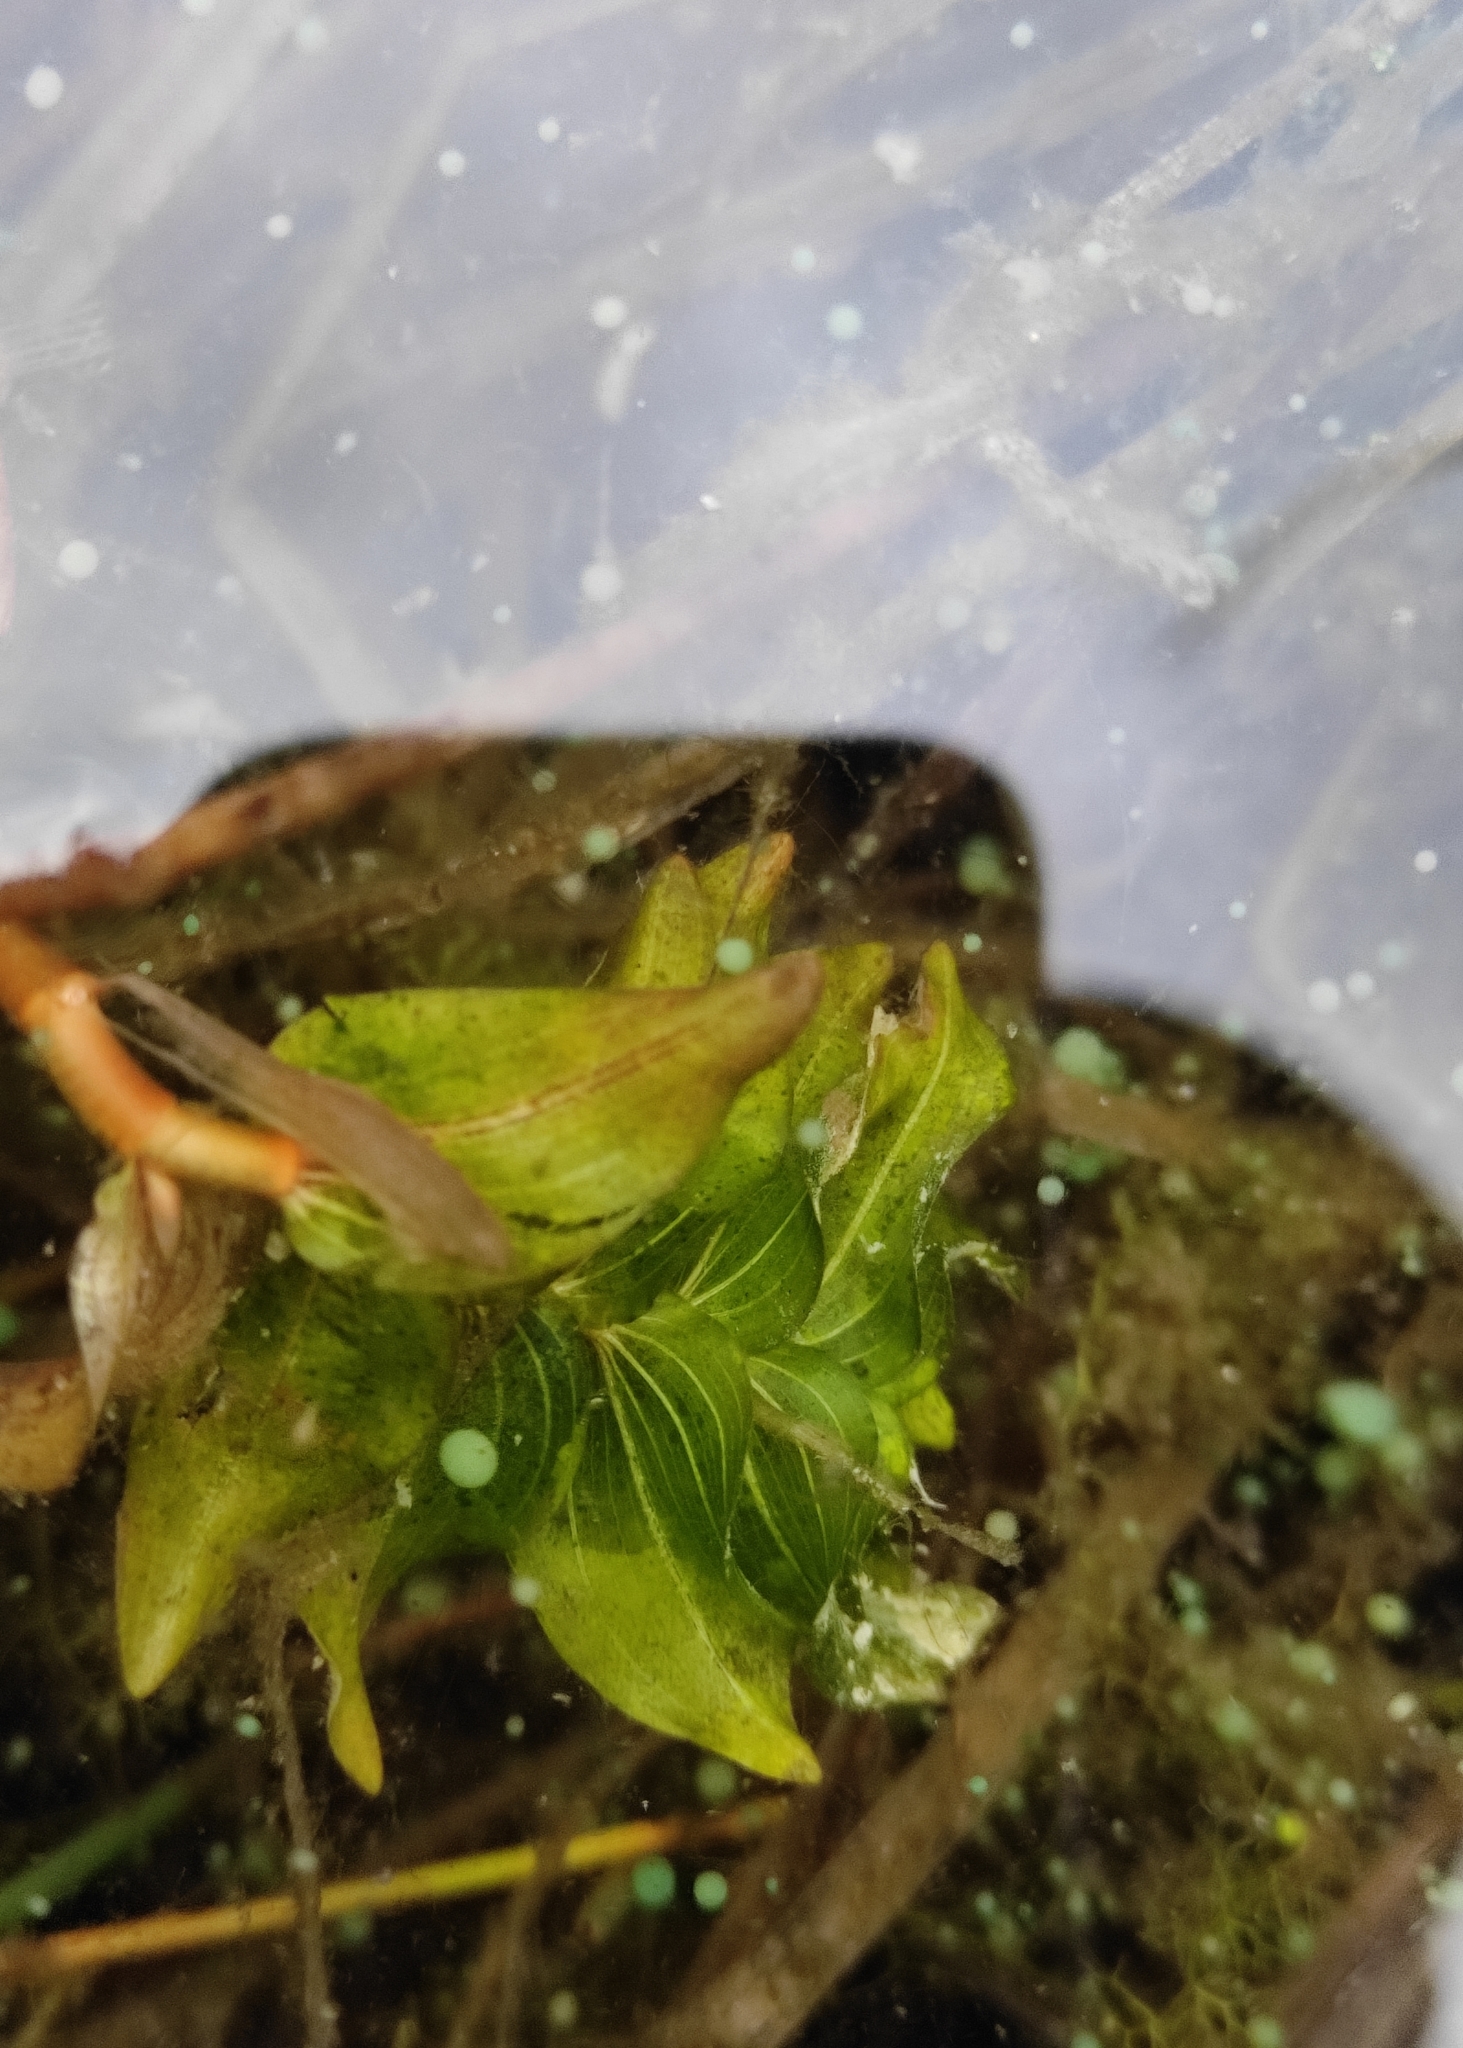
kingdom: Plantae
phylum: Tracheophyta
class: Liliopsida
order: Alismatales
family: Potamogetonaceae
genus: Potamogeton
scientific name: Potamogeton perfoliatus
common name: Perfoliate pondweed
